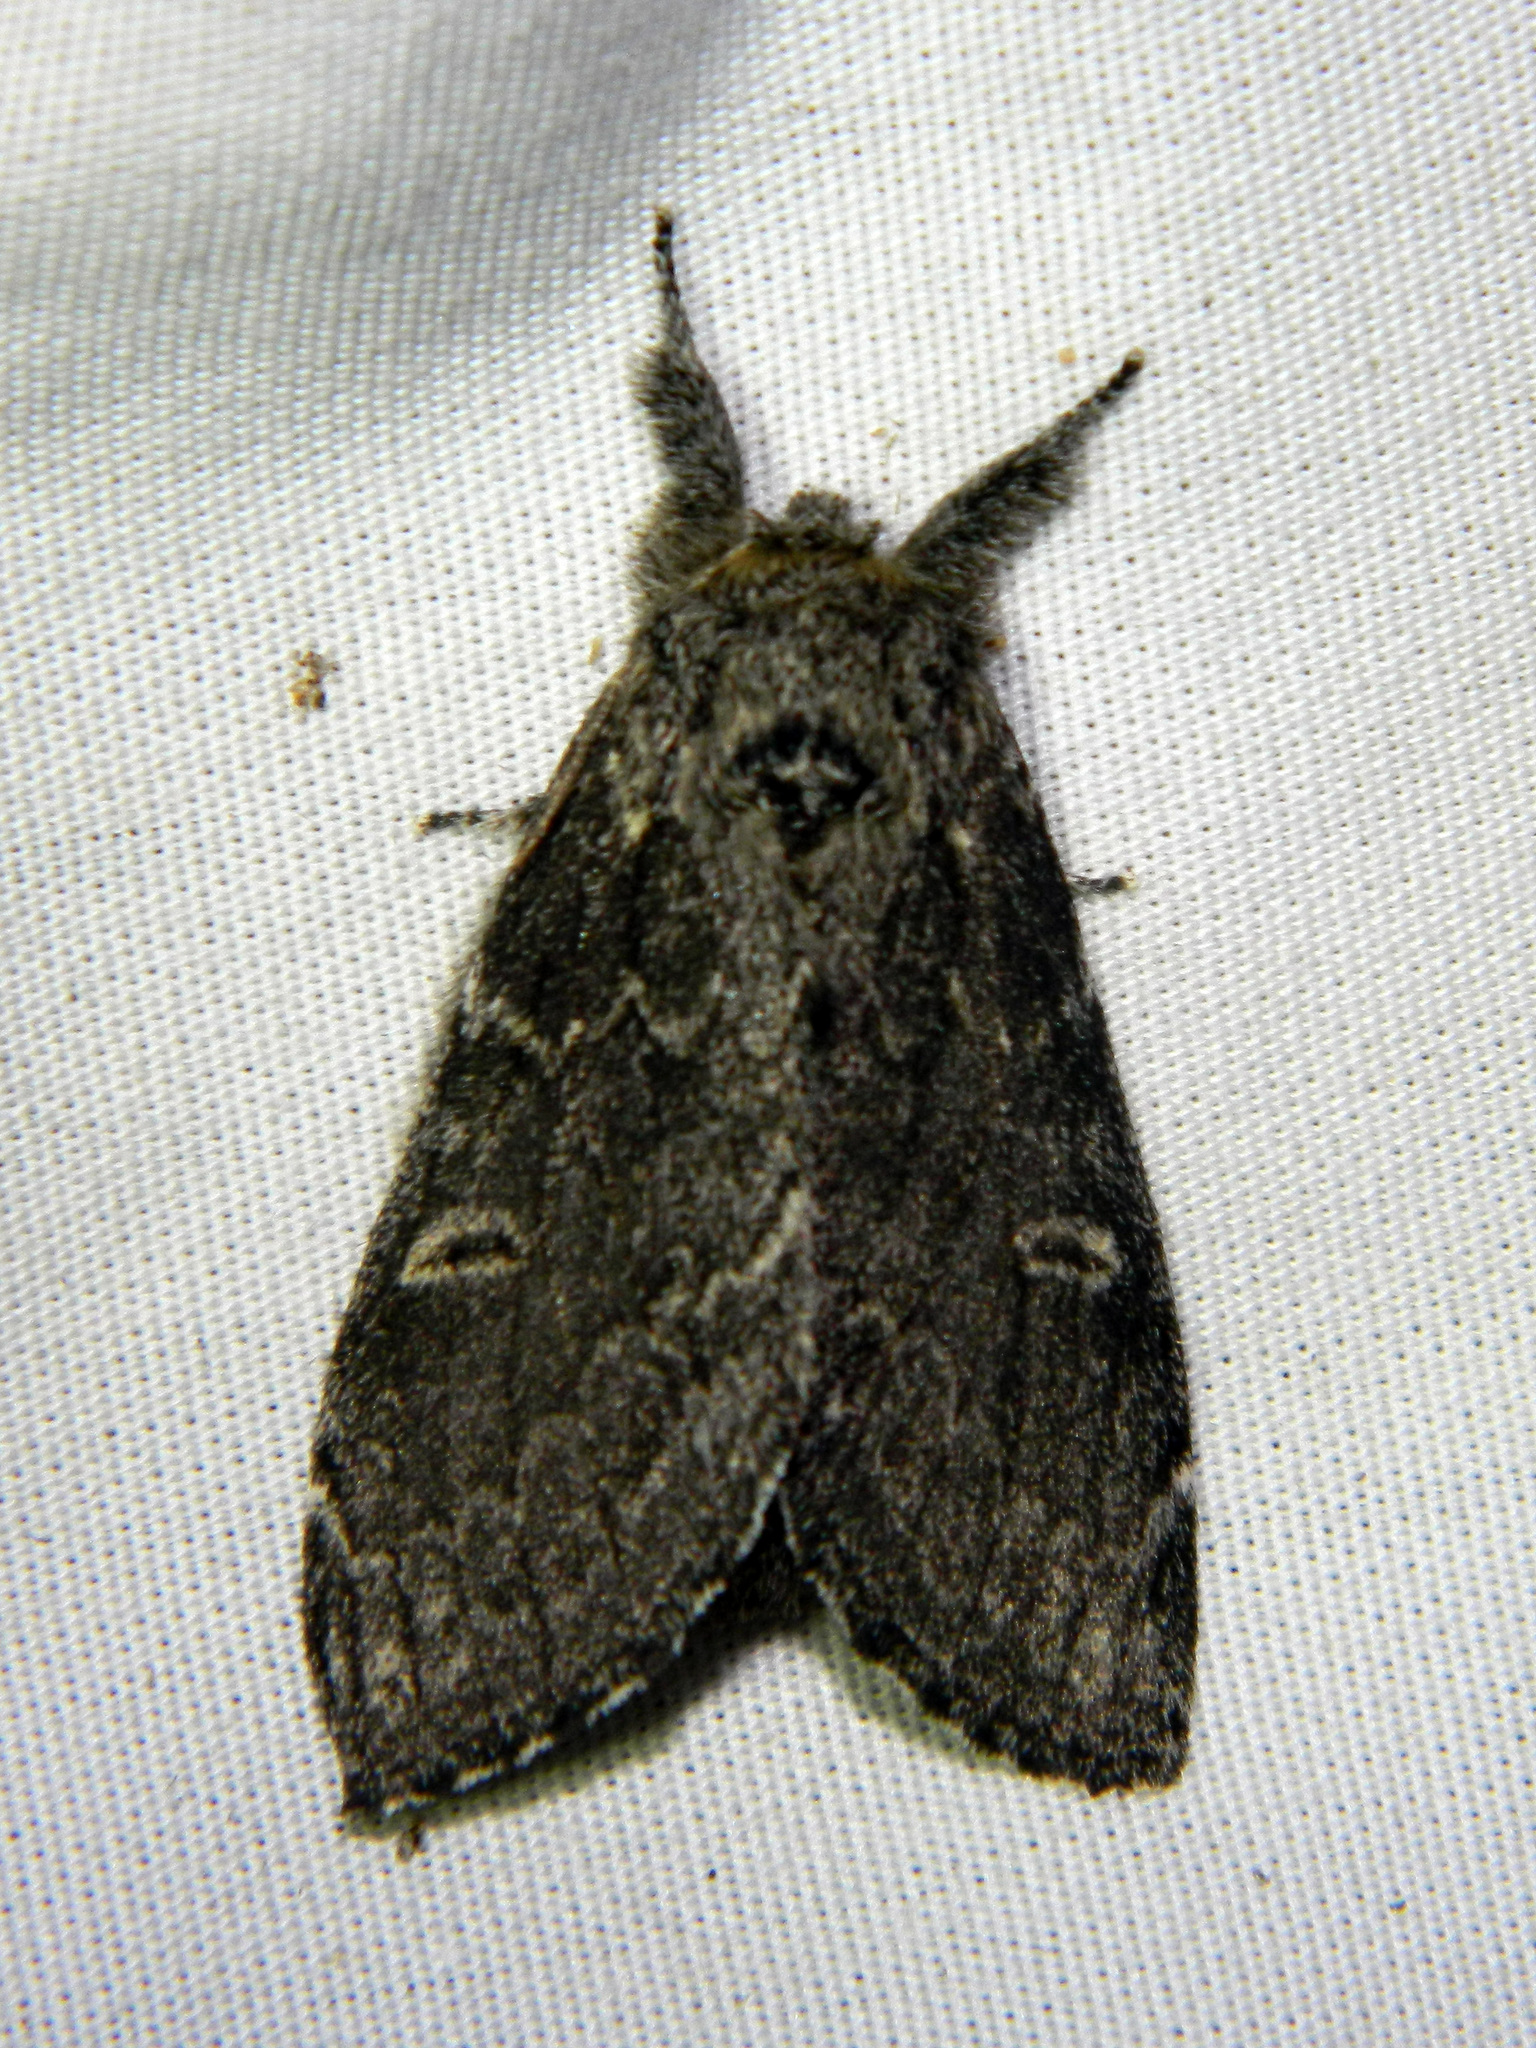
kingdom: Animalia
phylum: Arthropoda
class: Insecta
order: Lepidoptera
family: Notodontidae
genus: Notodonta
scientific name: Notodonta torva
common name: Large dark prominent
